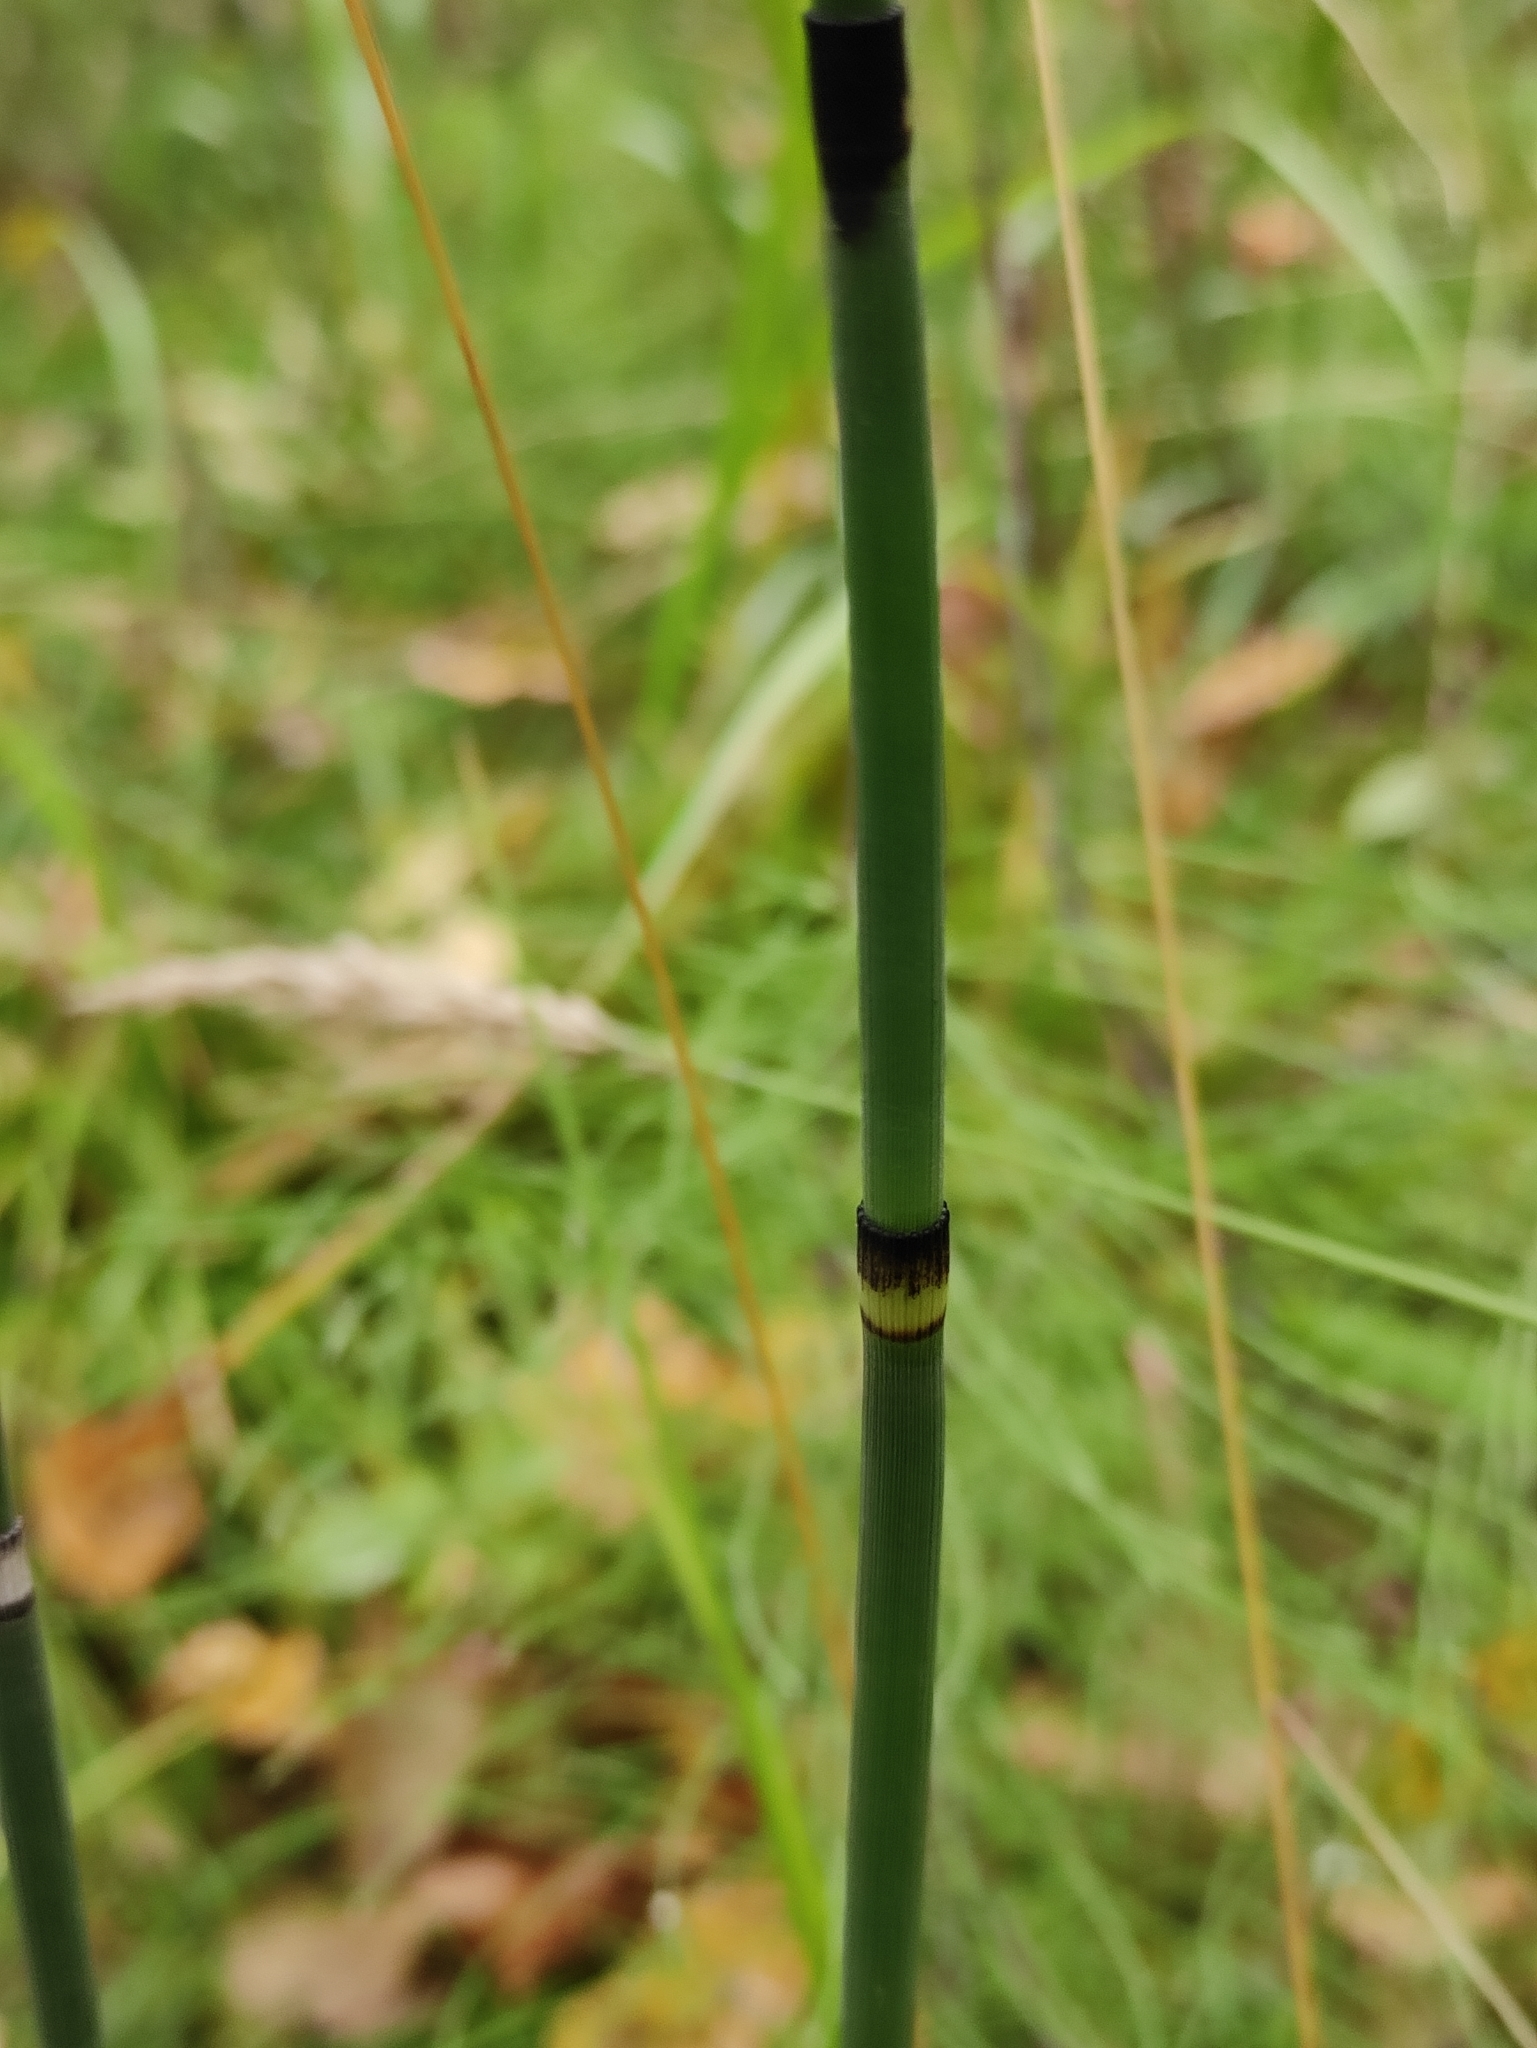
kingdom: Plantae
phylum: Tracheophyta
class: Polypodiopsida
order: Equisetales
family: Equisetaceae
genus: Equisetum
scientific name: Equisetum hyemale
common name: Rough horsetail
